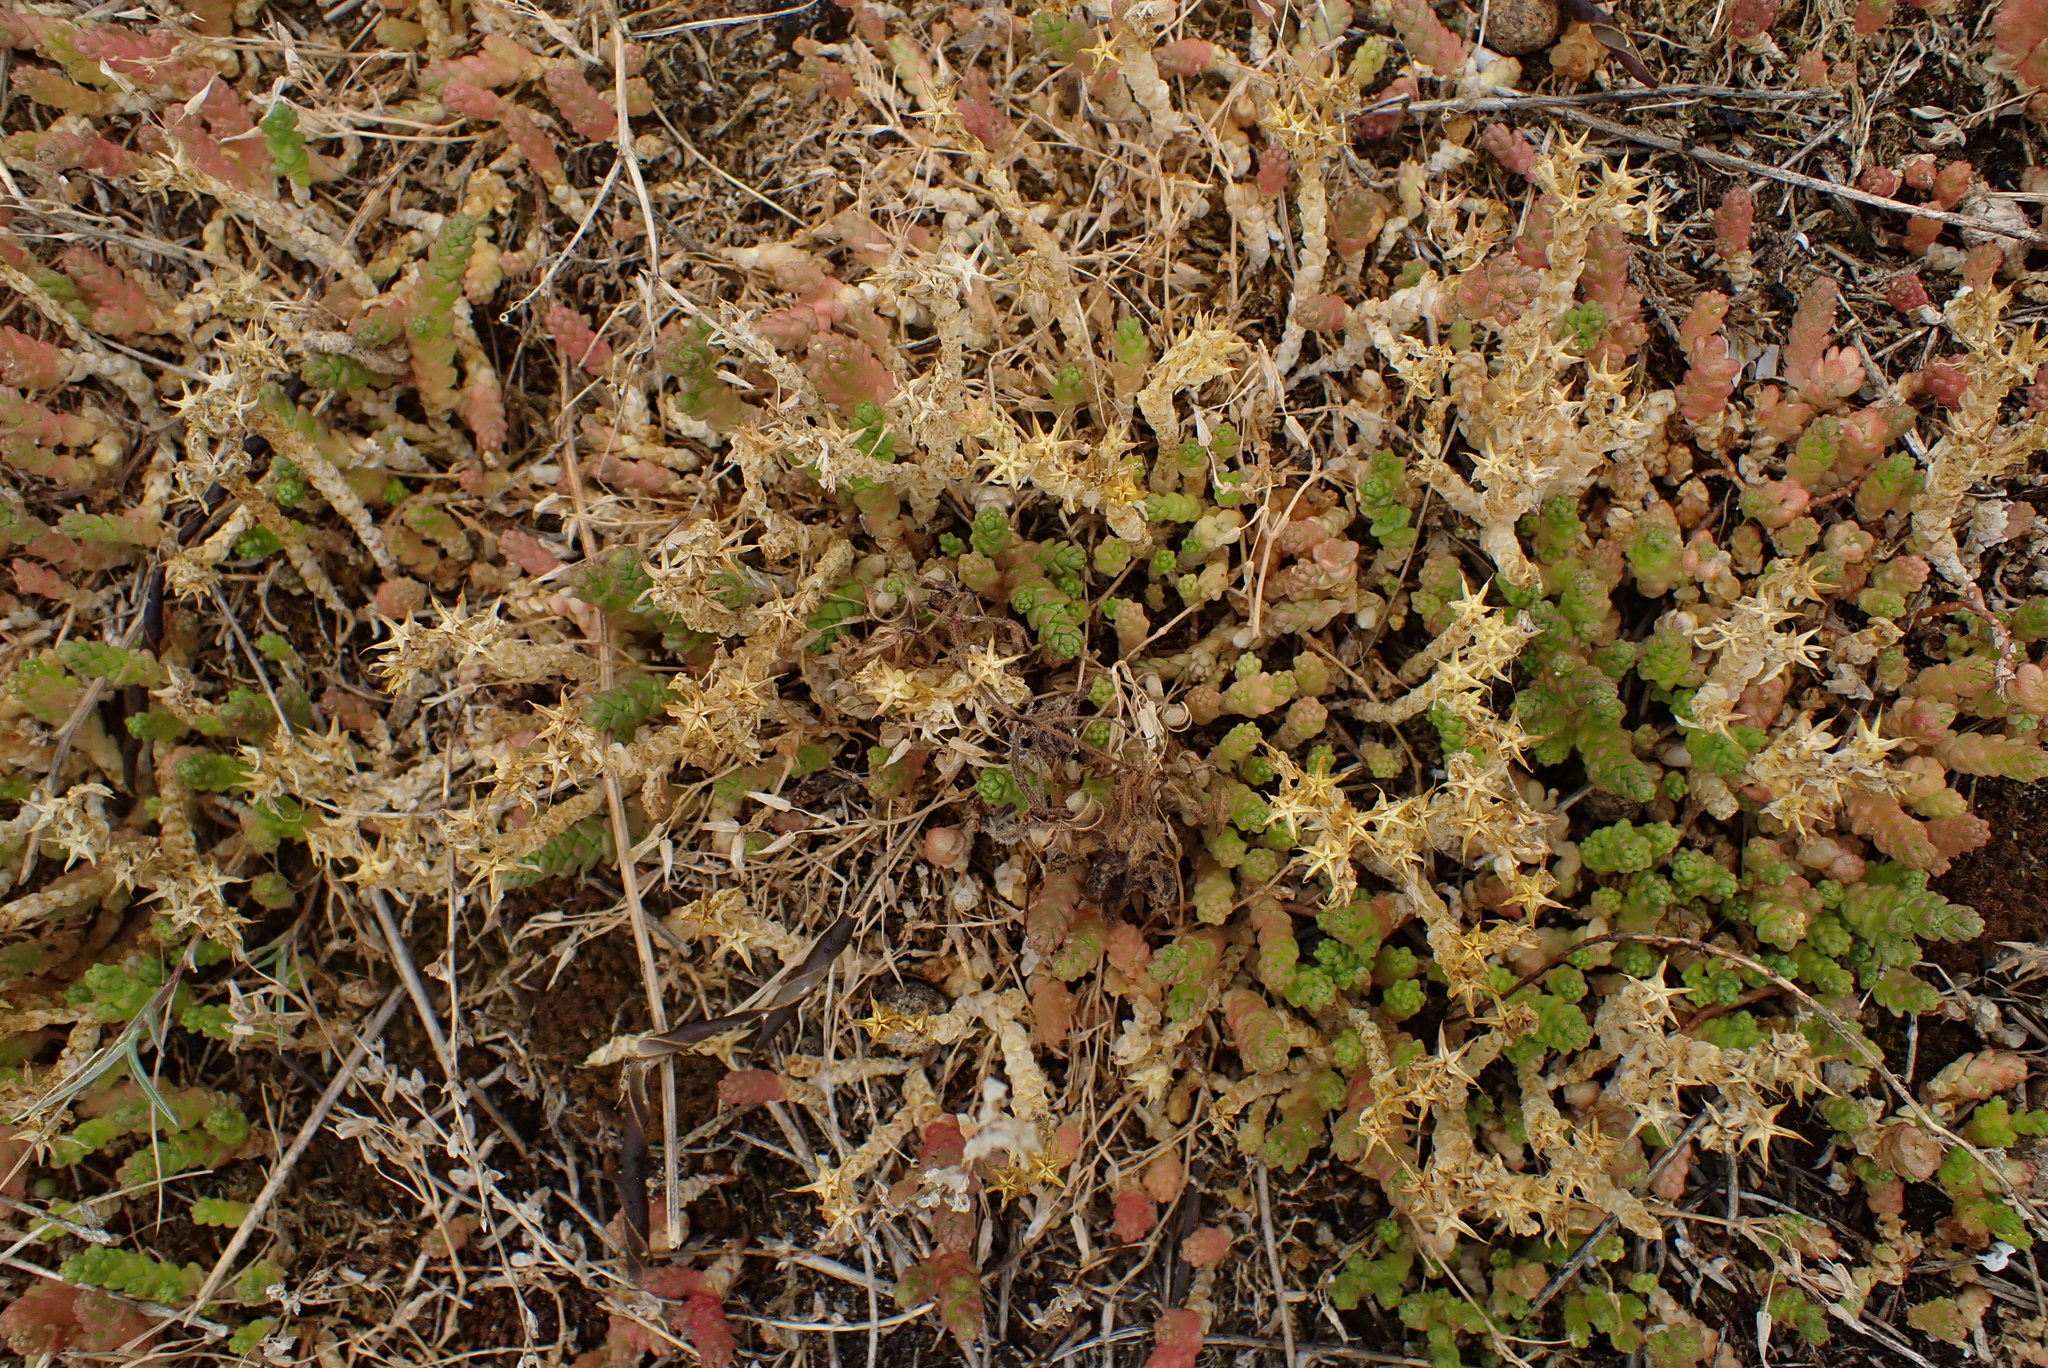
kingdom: Plantae
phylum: Tracheophyta
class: Magnoliopsida
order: Saxifragales
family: Crassulaceae
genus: Sedum
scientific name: Sedum acre
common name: Biting stonecrop
